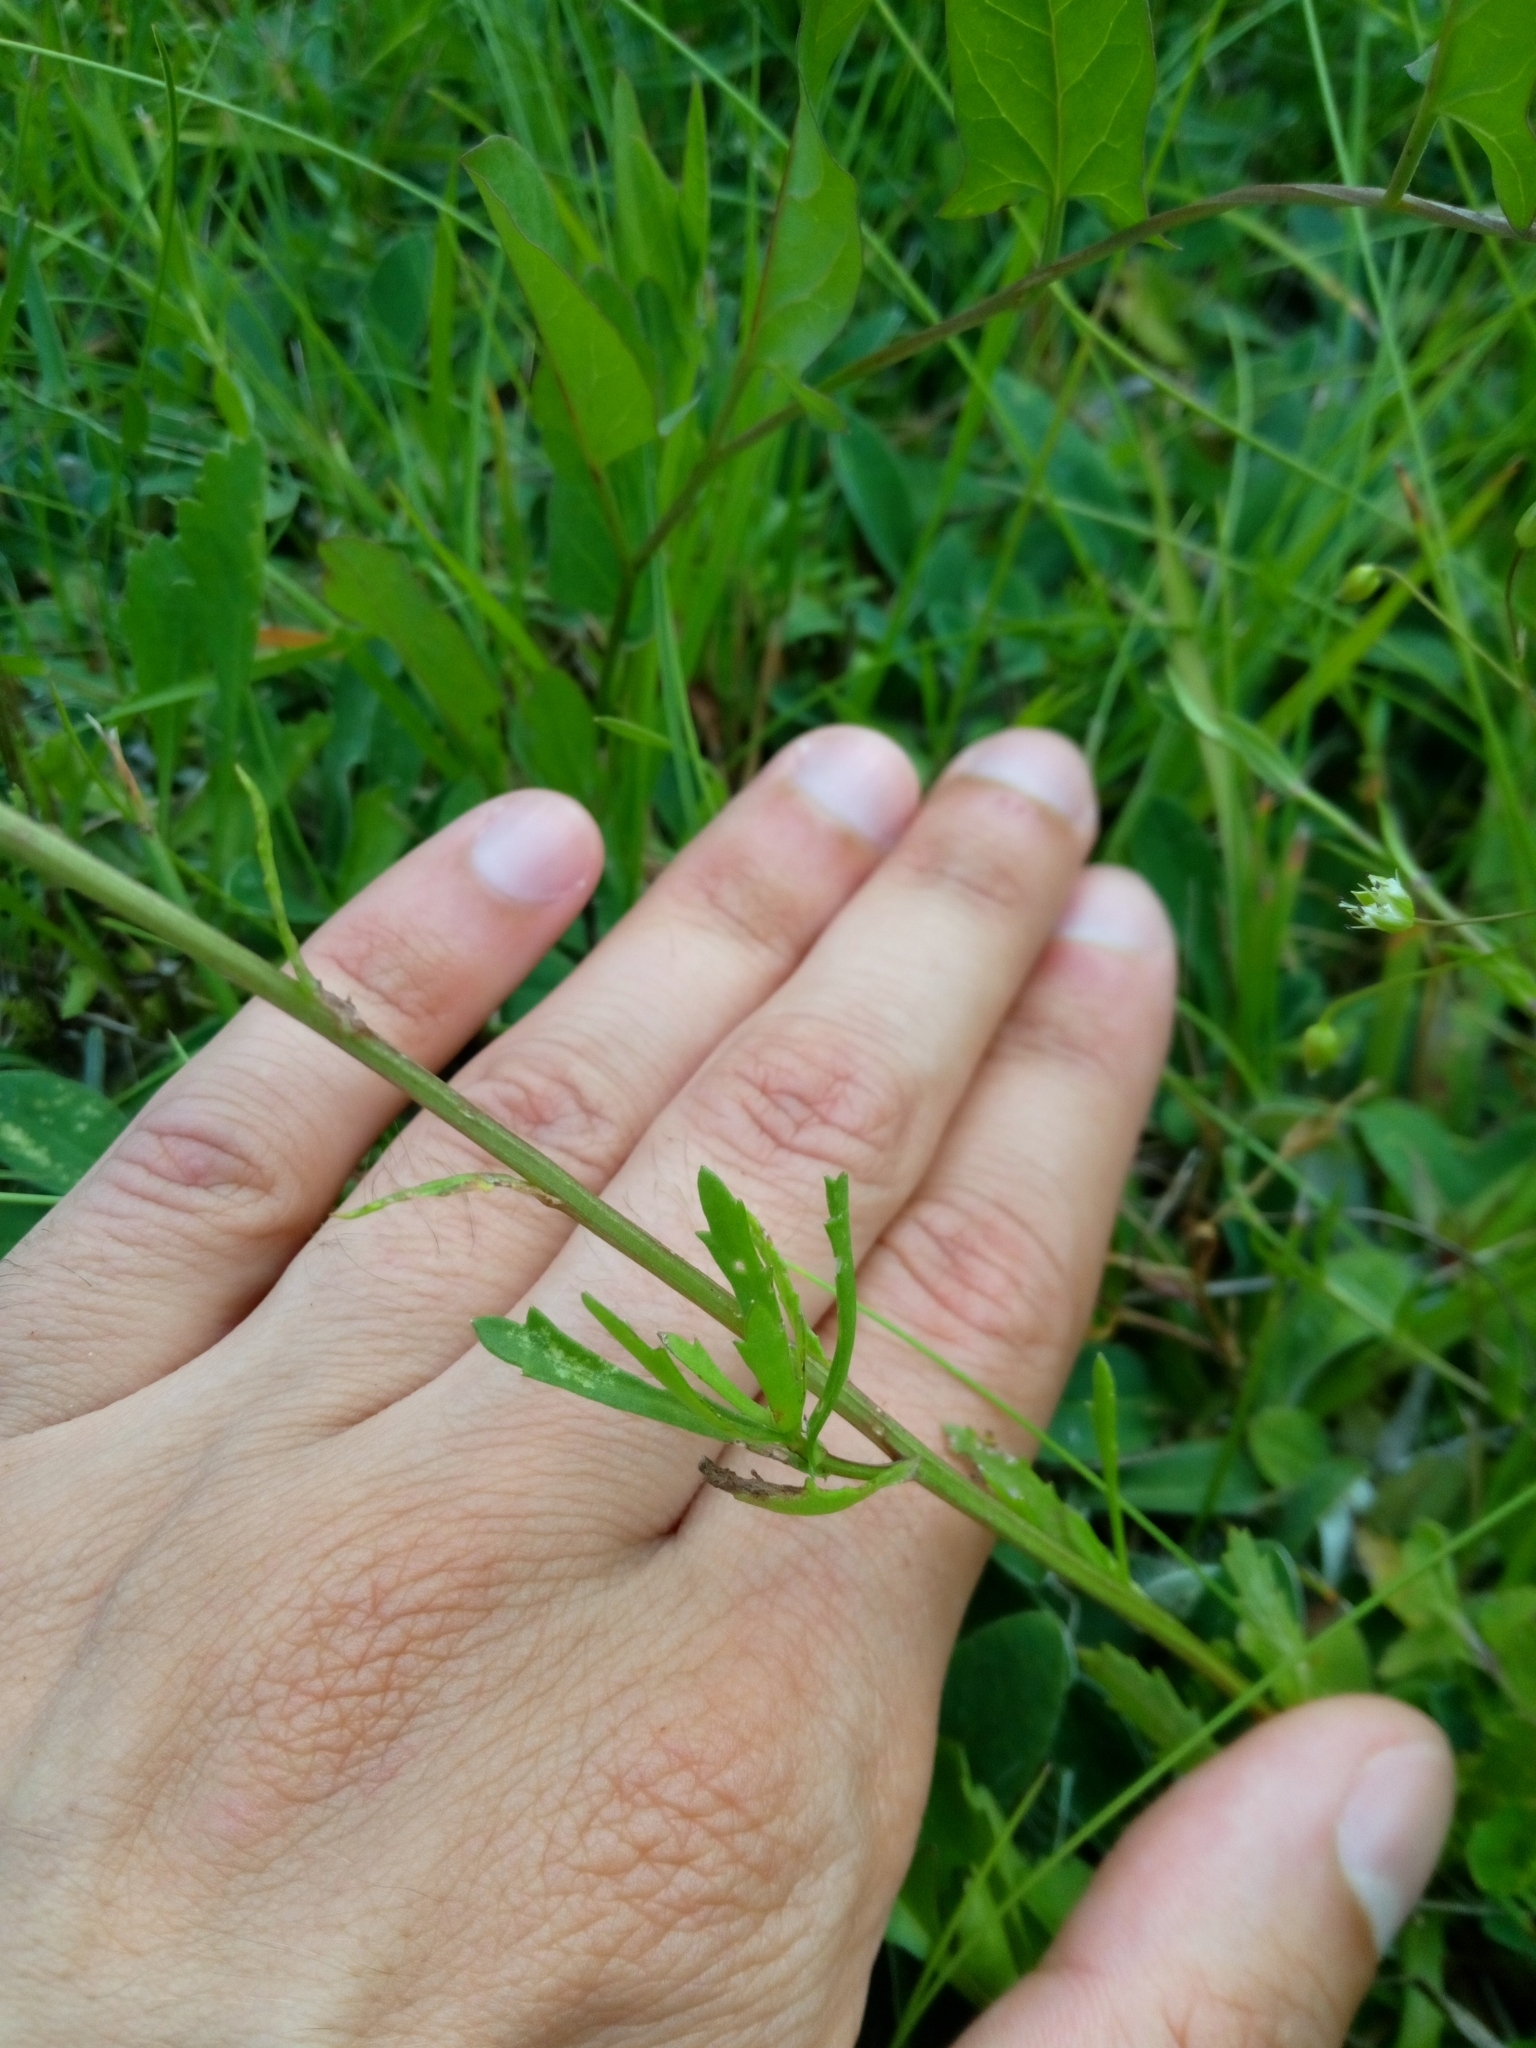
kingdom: Plantae
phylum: Tracheophyta
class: Magnoliopsida
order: Asterales
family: Asteraceae
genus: Leucanthemum
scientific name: Leucanthemum vulgare
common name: Oxeye daisy
